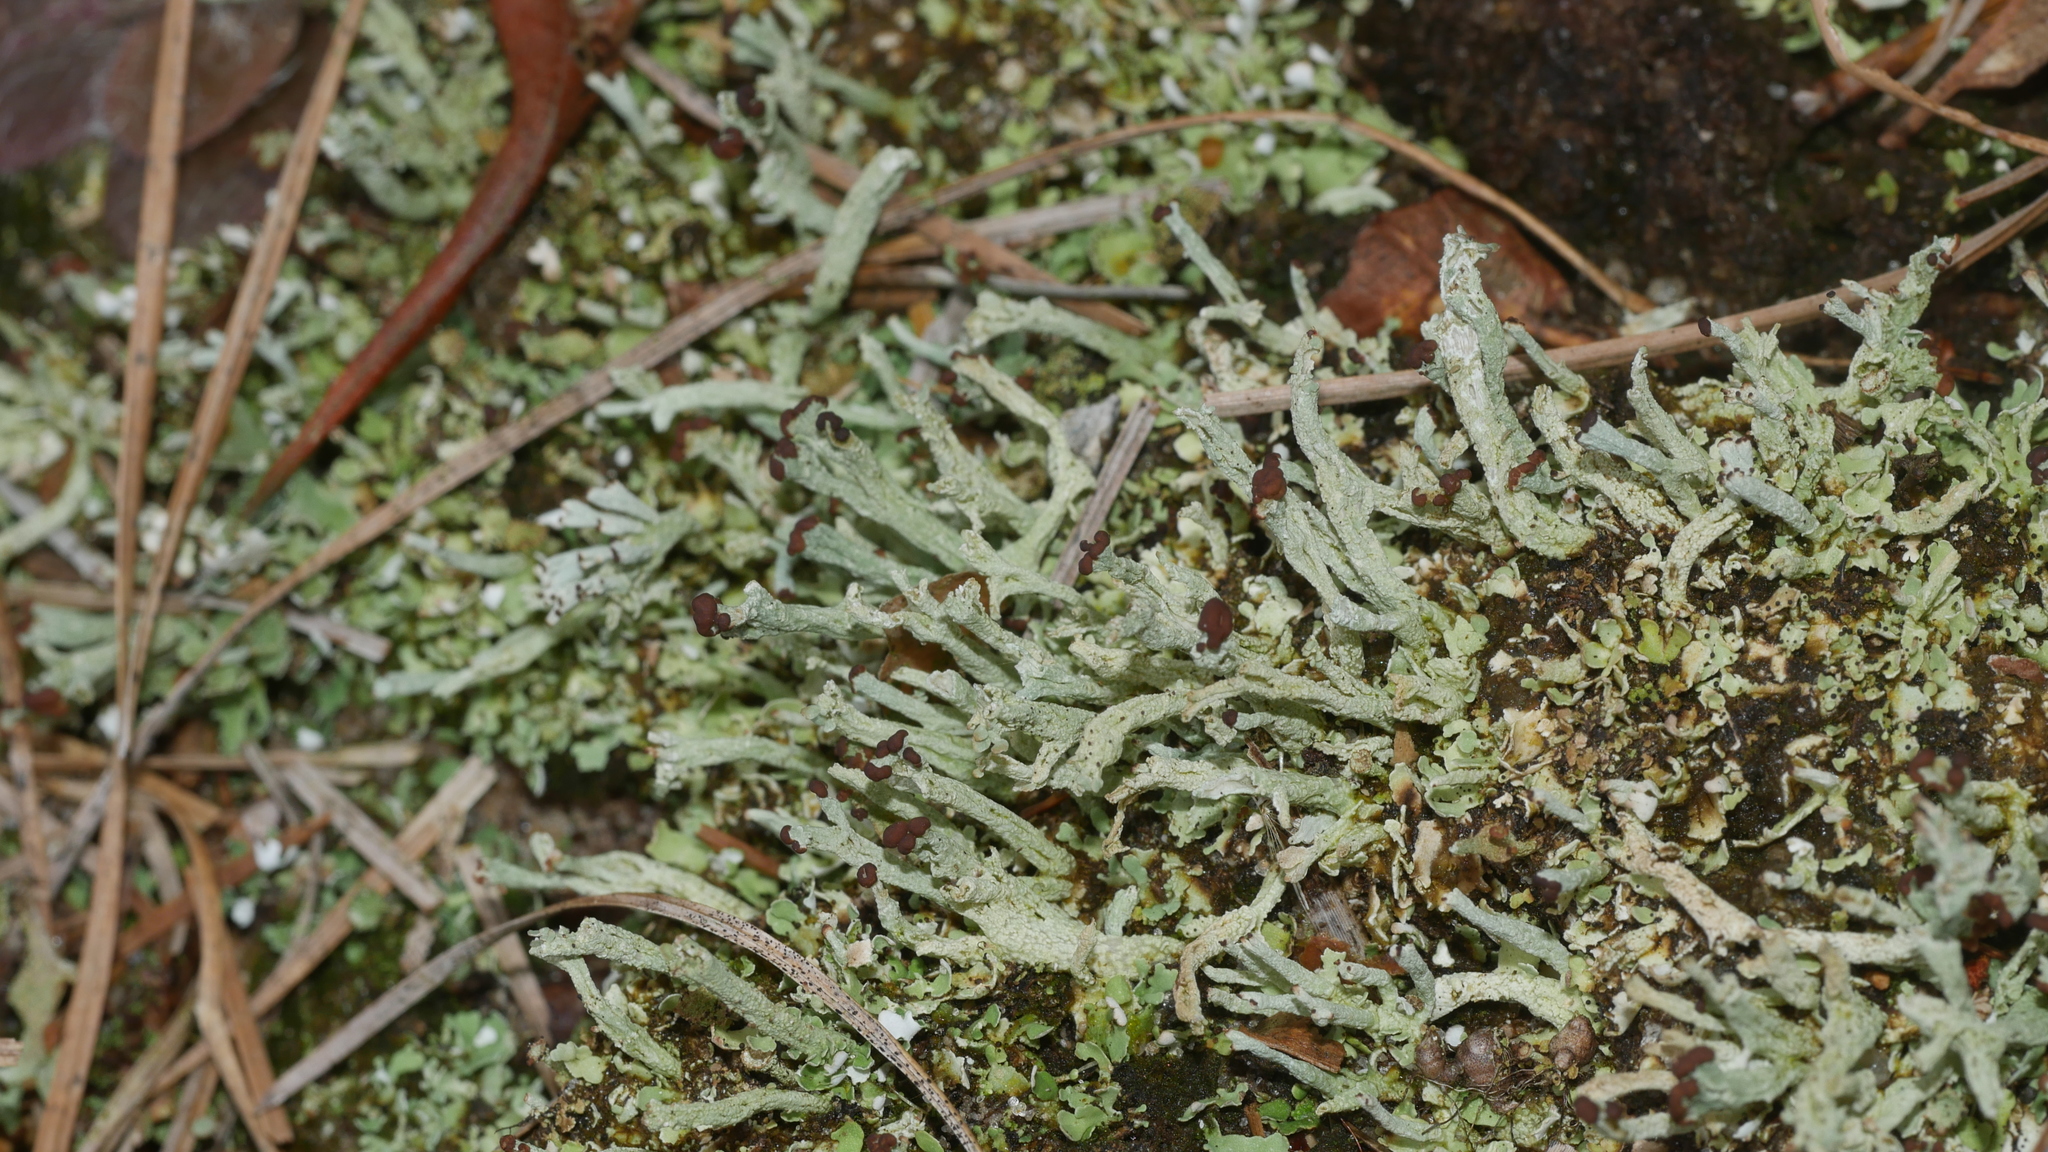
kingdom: Fungi
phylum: Ascomycota
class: Lecanoromycetes
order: Lecanorales
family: Cladoniaceae
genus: Cladonia
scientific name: Cladonia peziziformis
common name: Cup lichen
